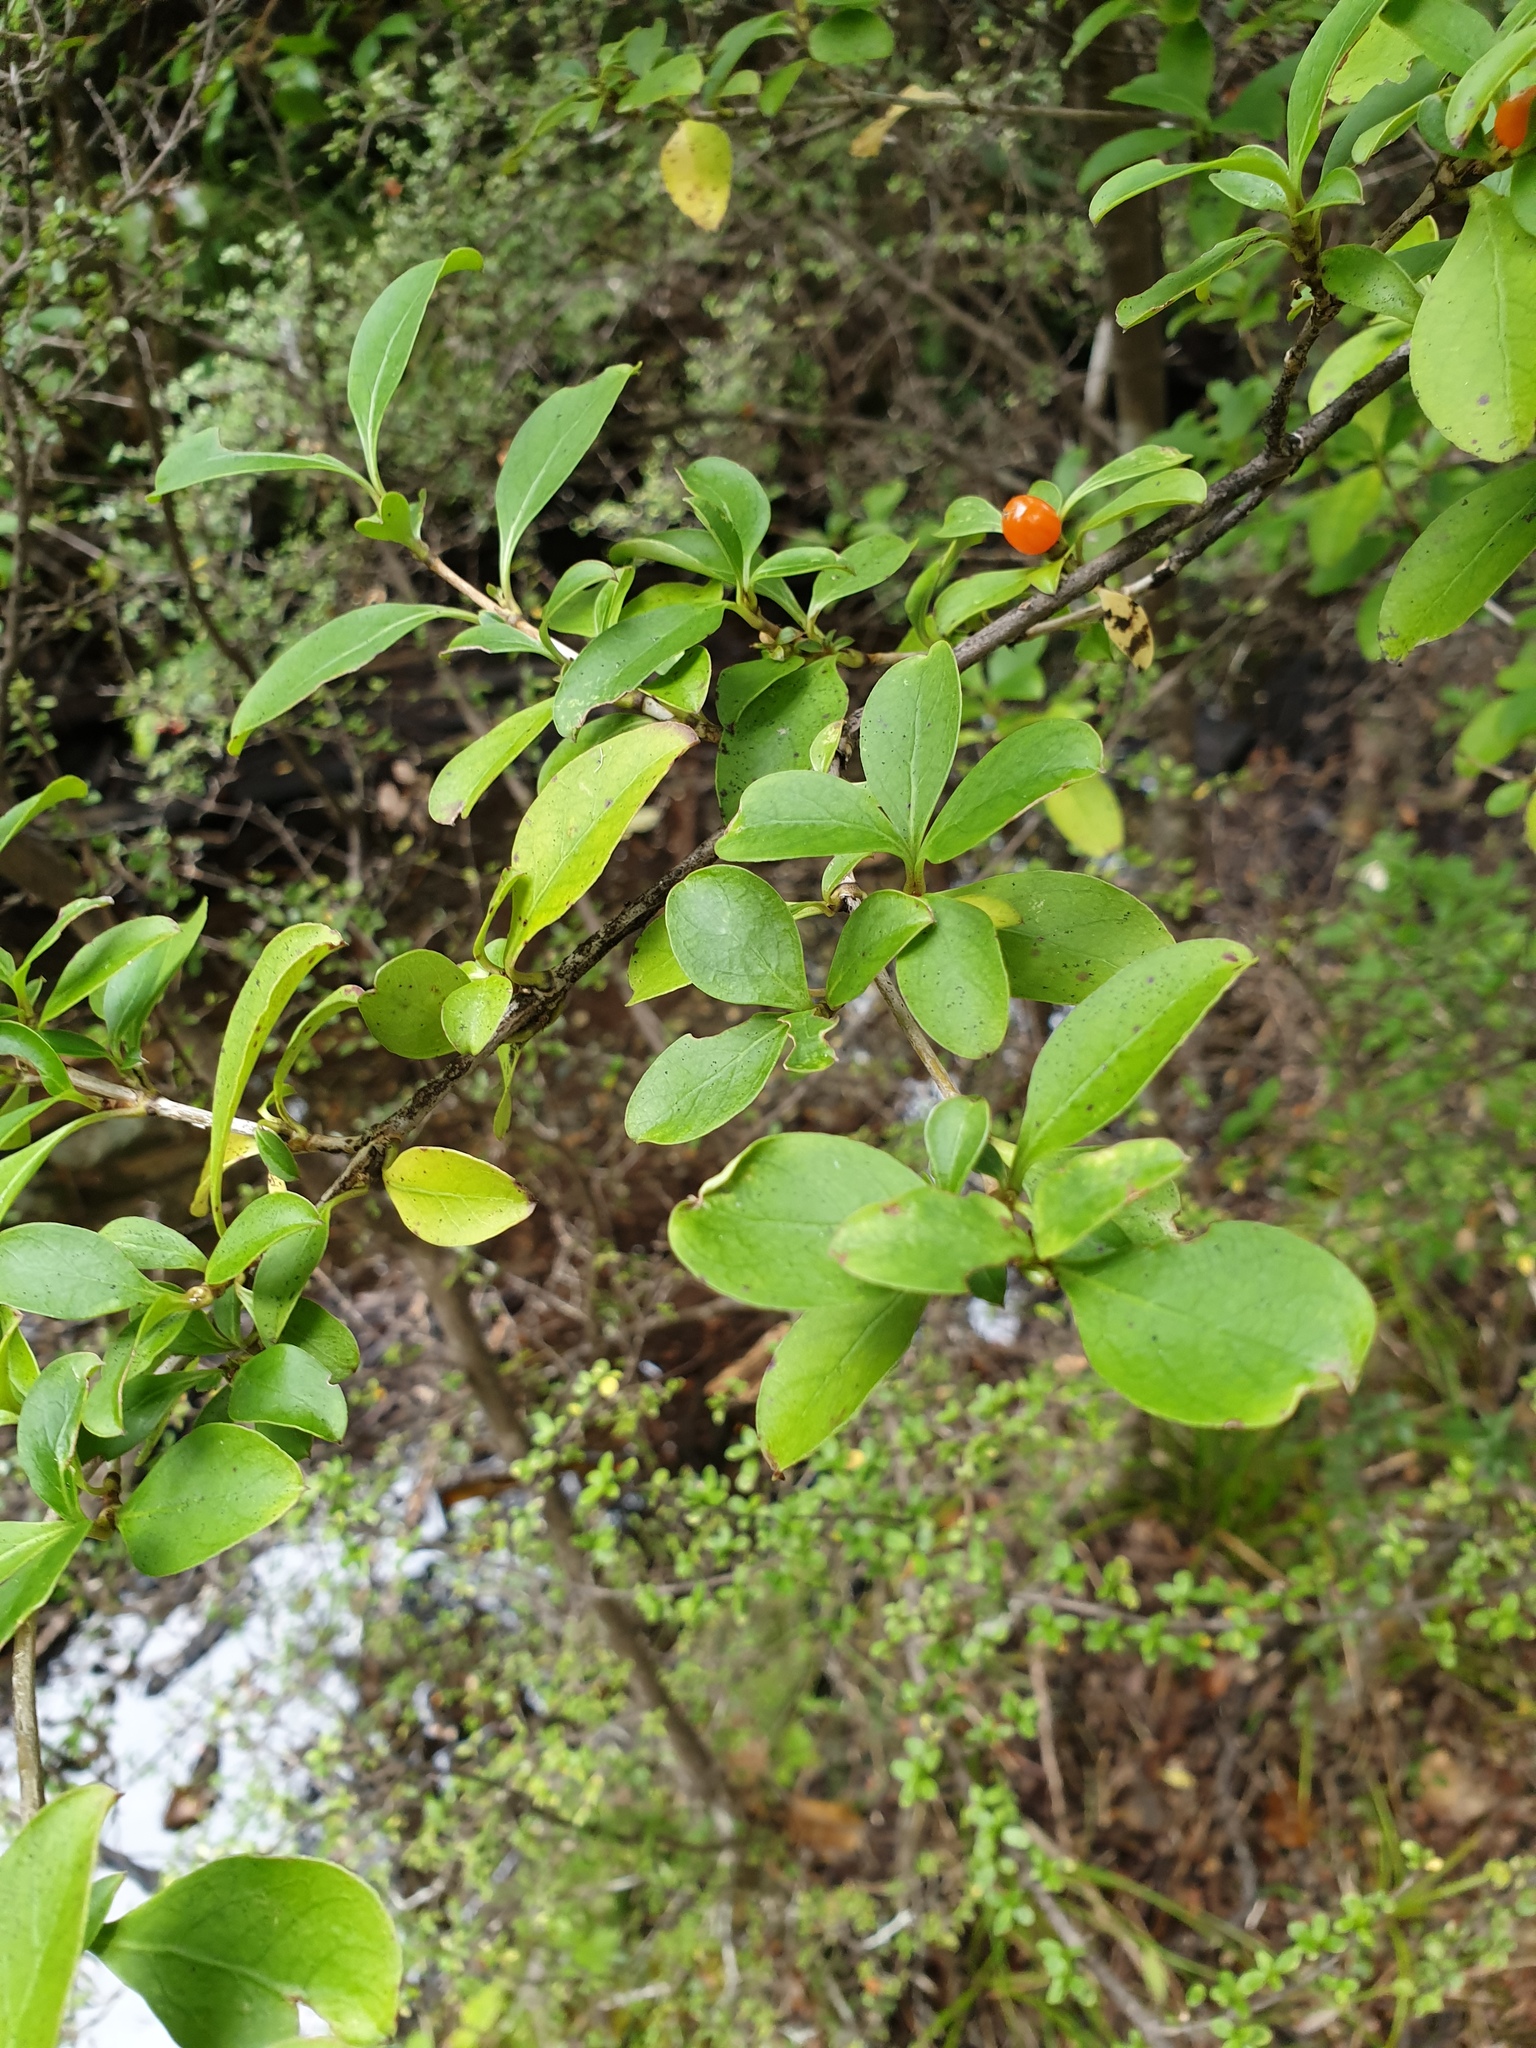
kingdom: Plantae
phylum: Tracheophyta
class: Magnoliopsida
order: Gentianales
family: Rubiaceae
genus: Coprosma
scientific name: Coprosma foetidissima
